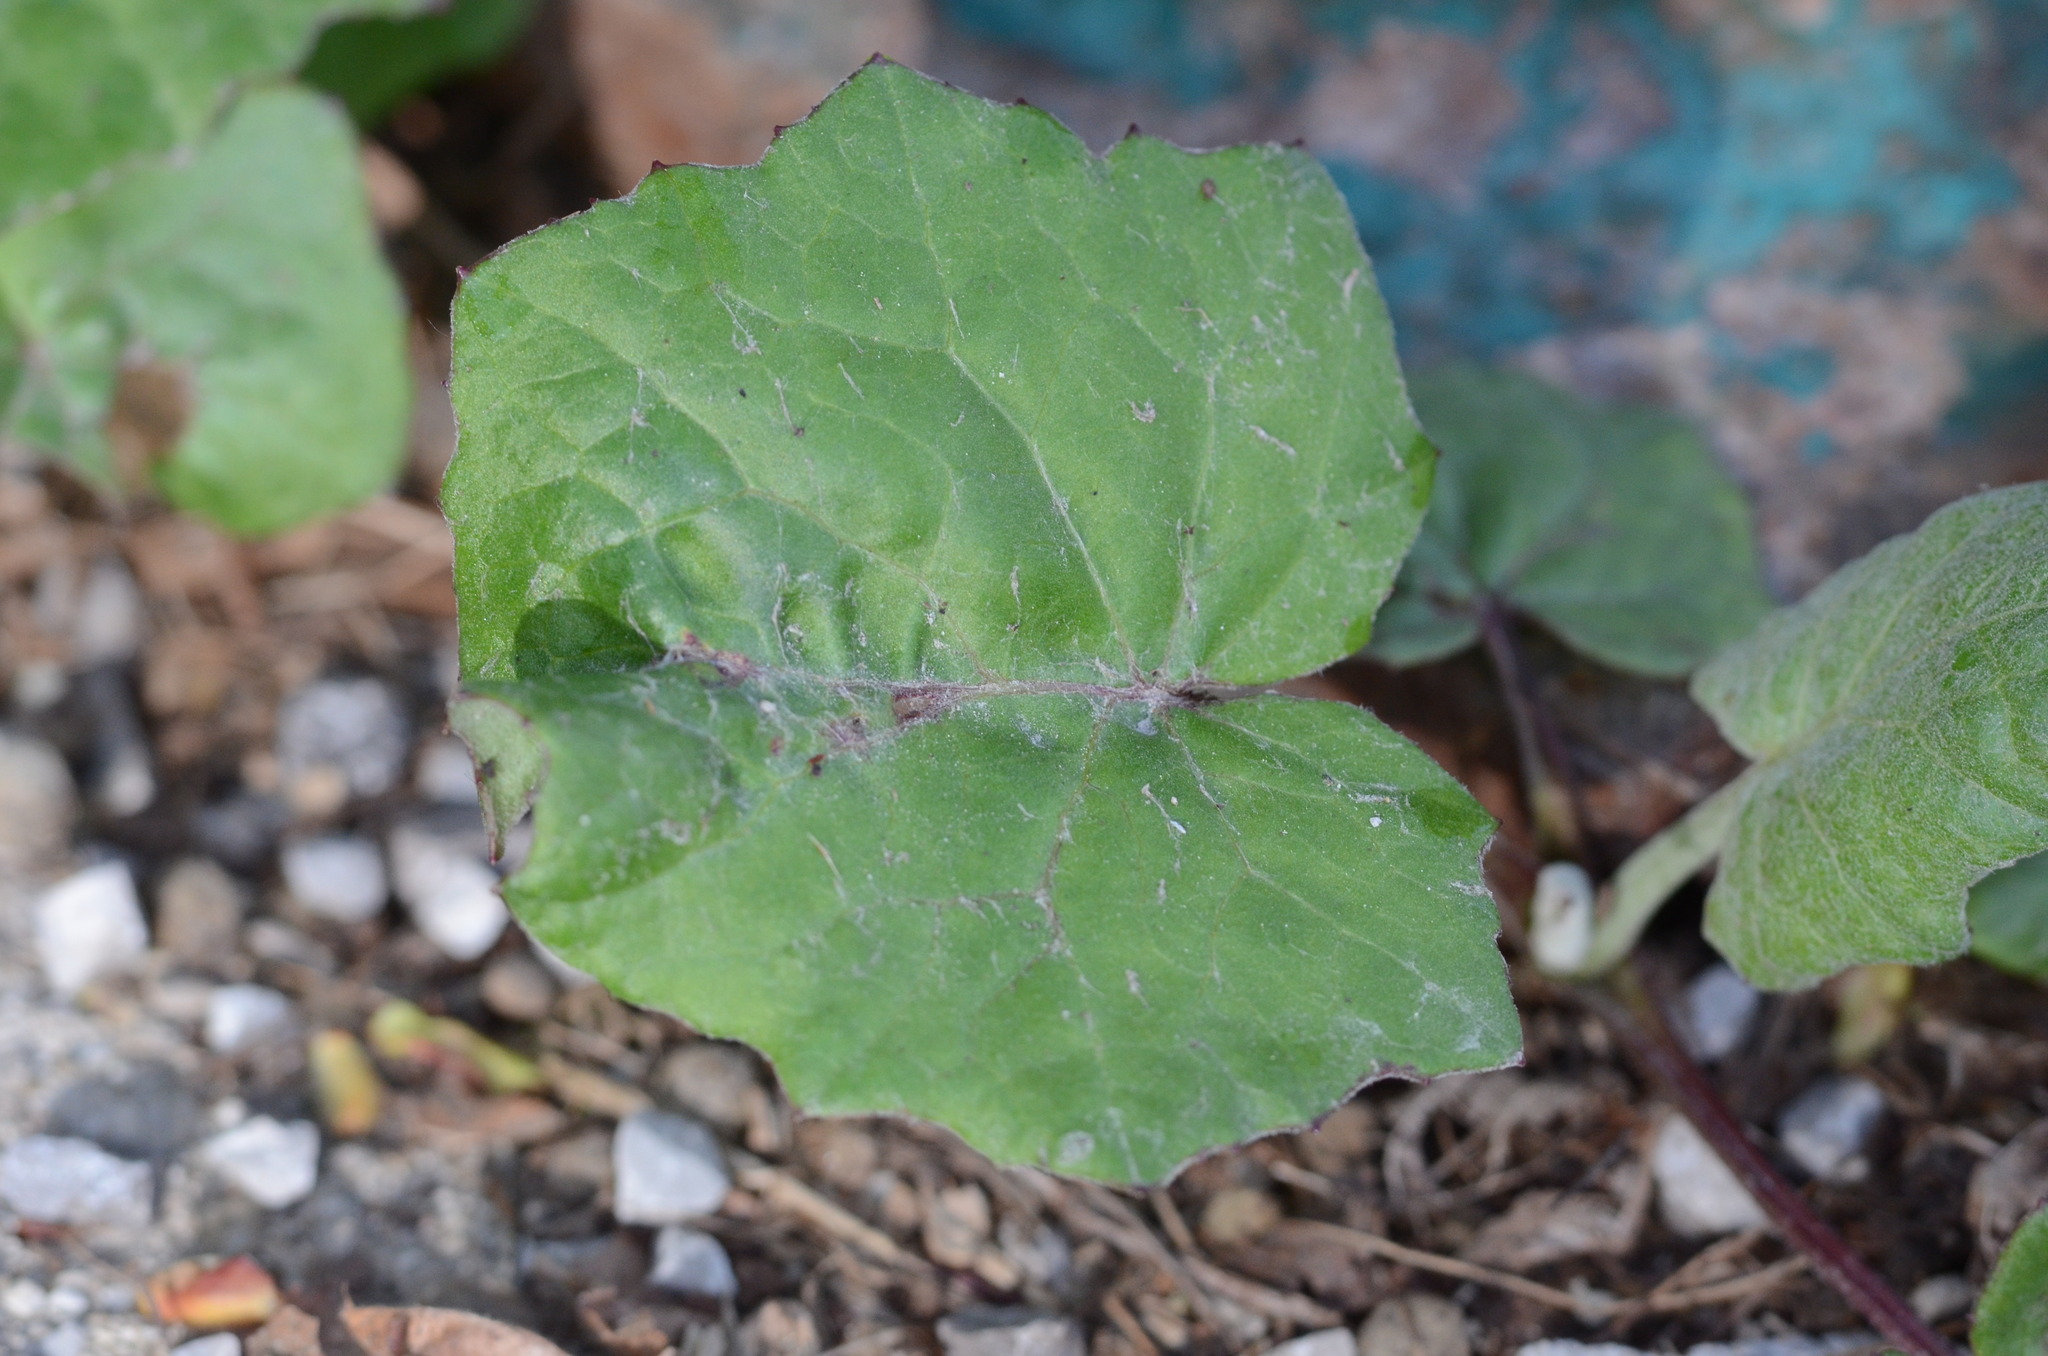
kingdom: Plantae
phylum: Tracheophyta
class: Magnoliopsida
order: Asterales
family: Asteraceae
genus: Tussilago
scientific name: Tussilago farfara
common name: Coltsfoot
